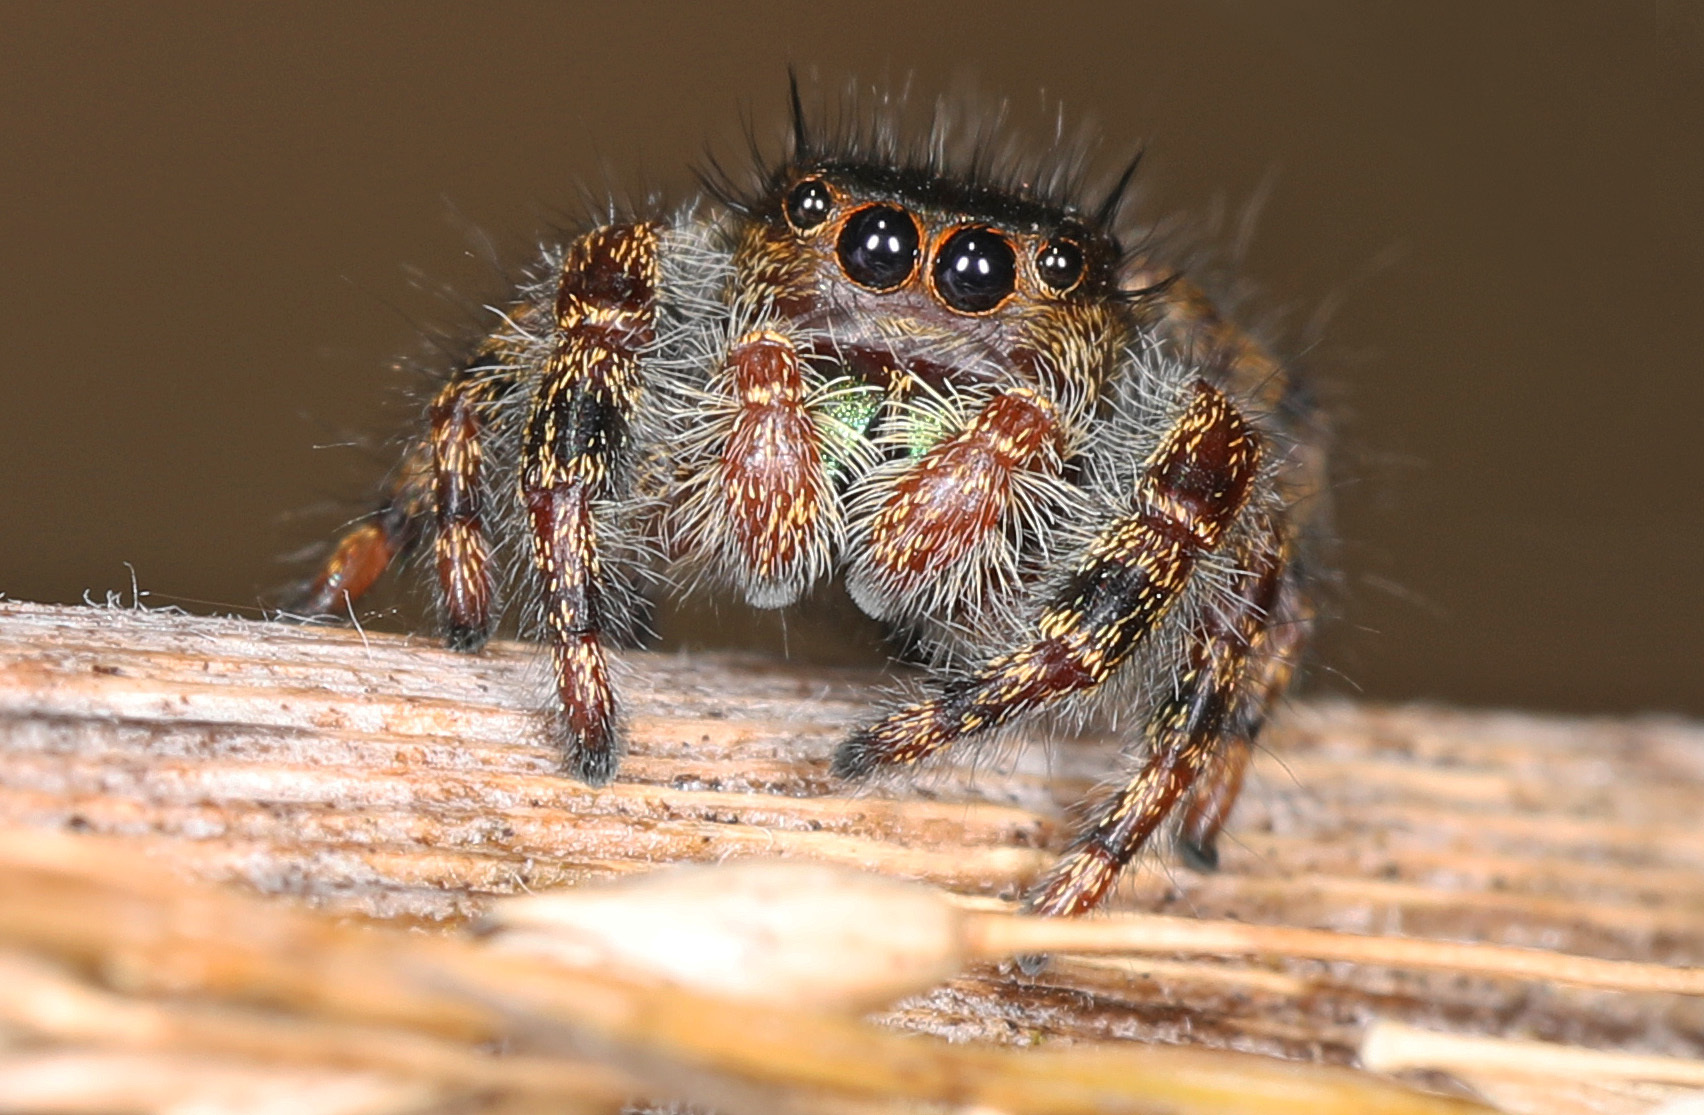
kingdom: Animalia
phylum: Arthropoda
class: Arachnida
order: Araneae
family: Salticidae
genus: Phidippus
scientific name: Phidippus audax
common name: Bold jumper
